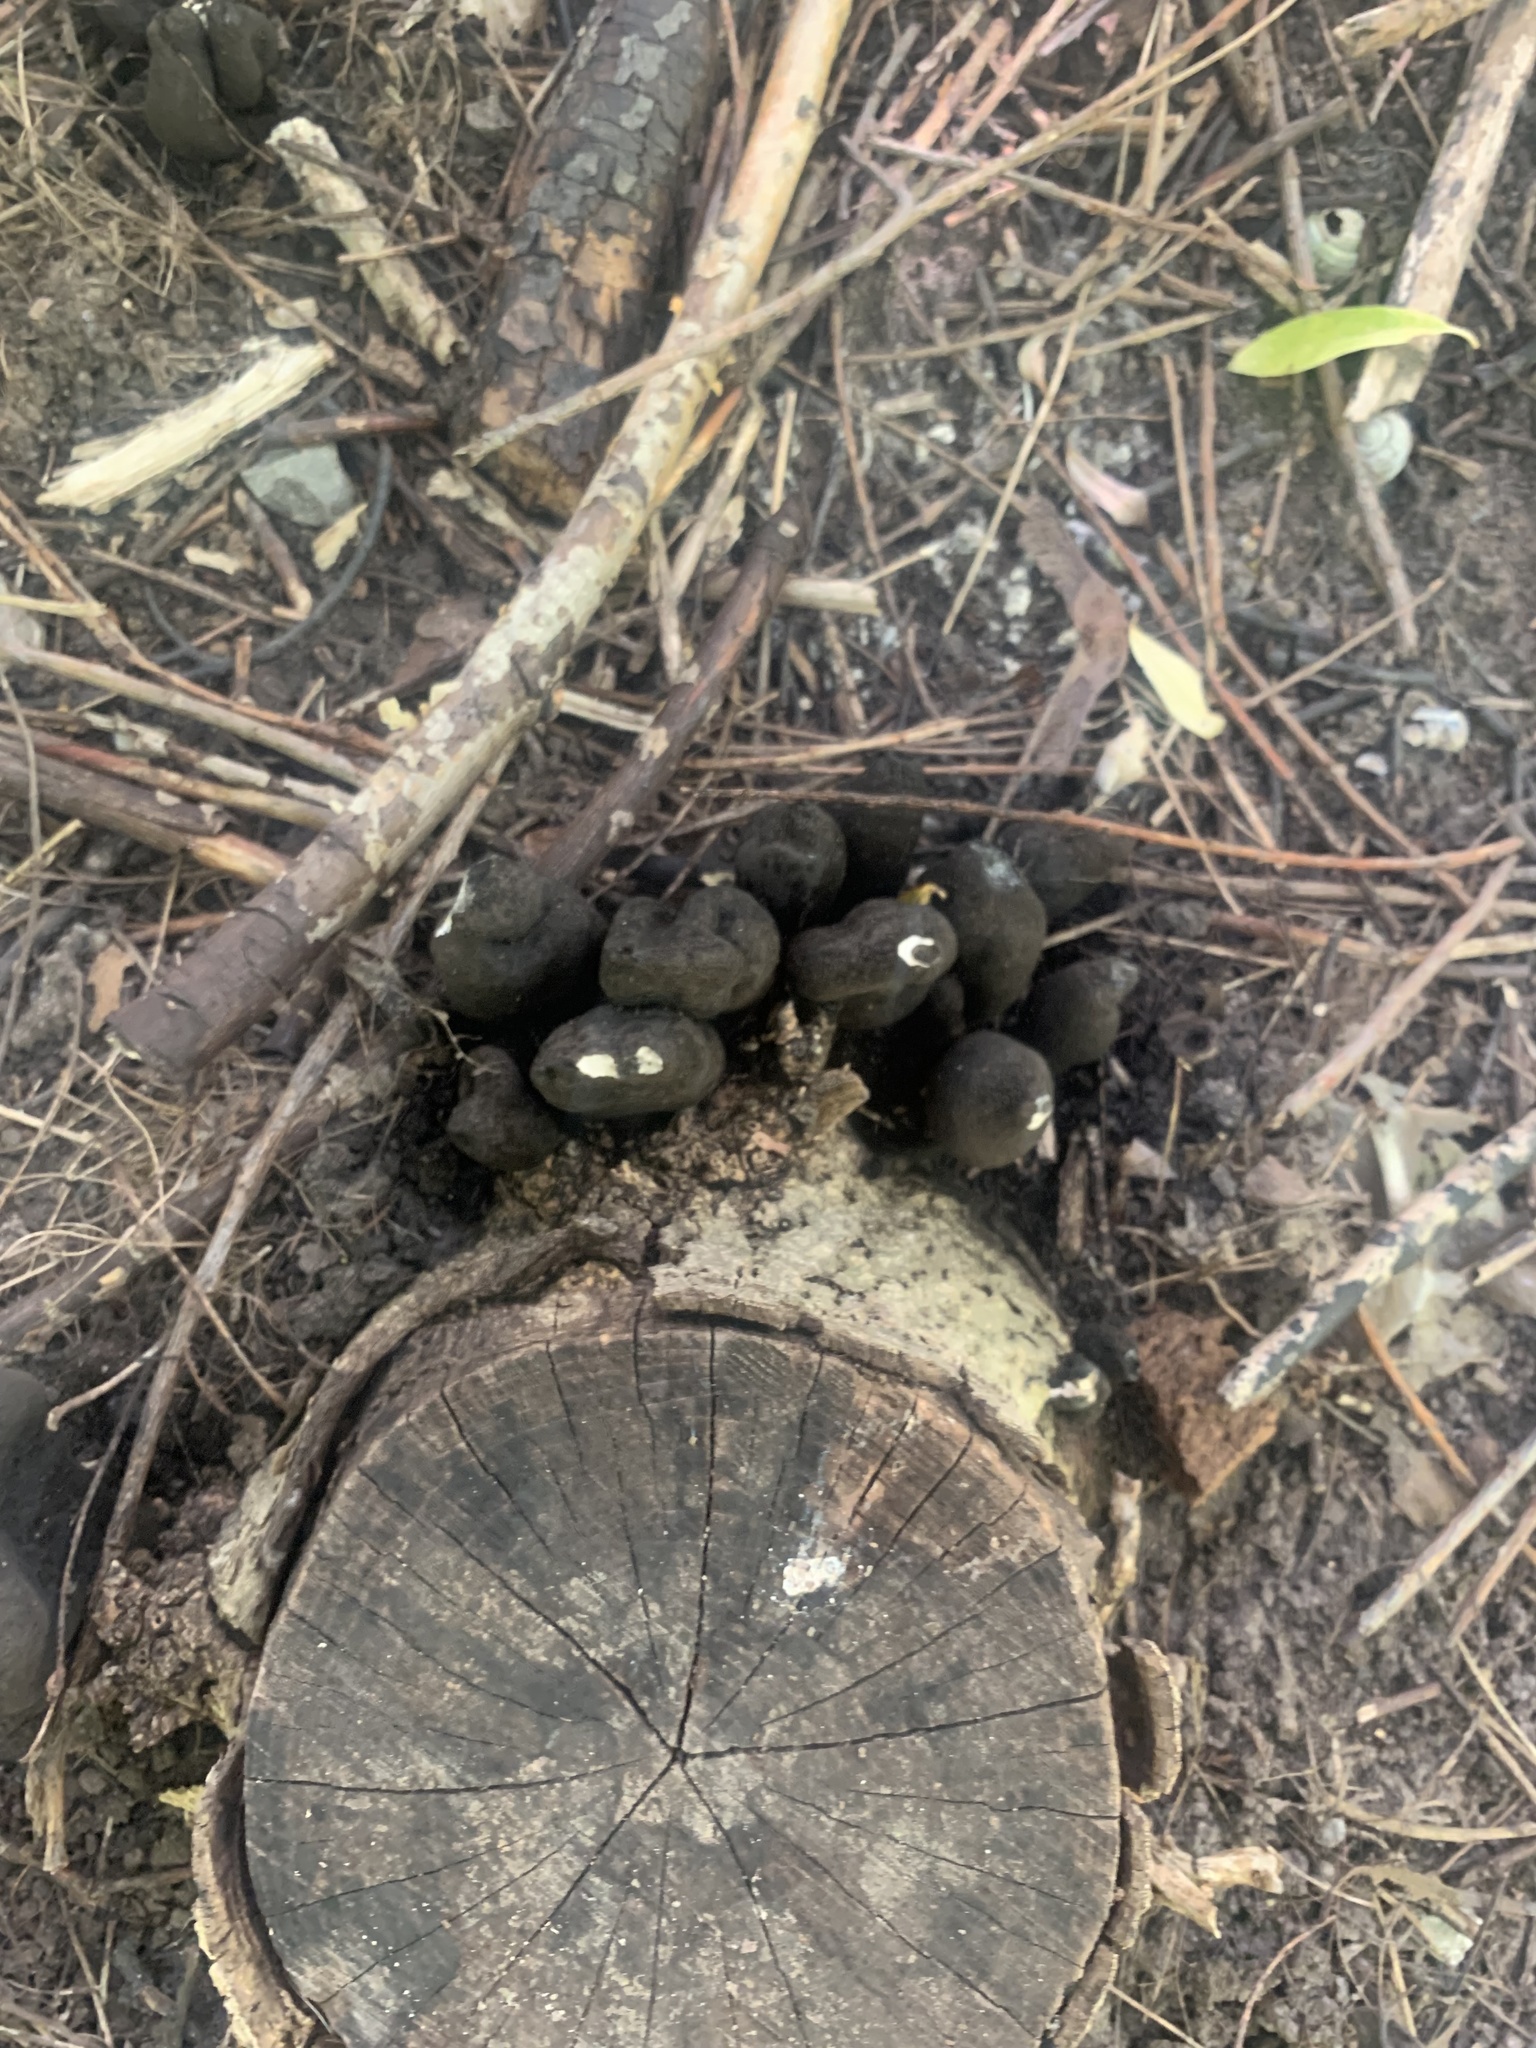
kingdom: Fungi
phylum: Ascomycota
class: Sordariomycetes
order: Xylariales
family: Xylariaceae
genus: Xylaria
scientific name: Xylaria polymorpha
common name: Dead man's fingers
